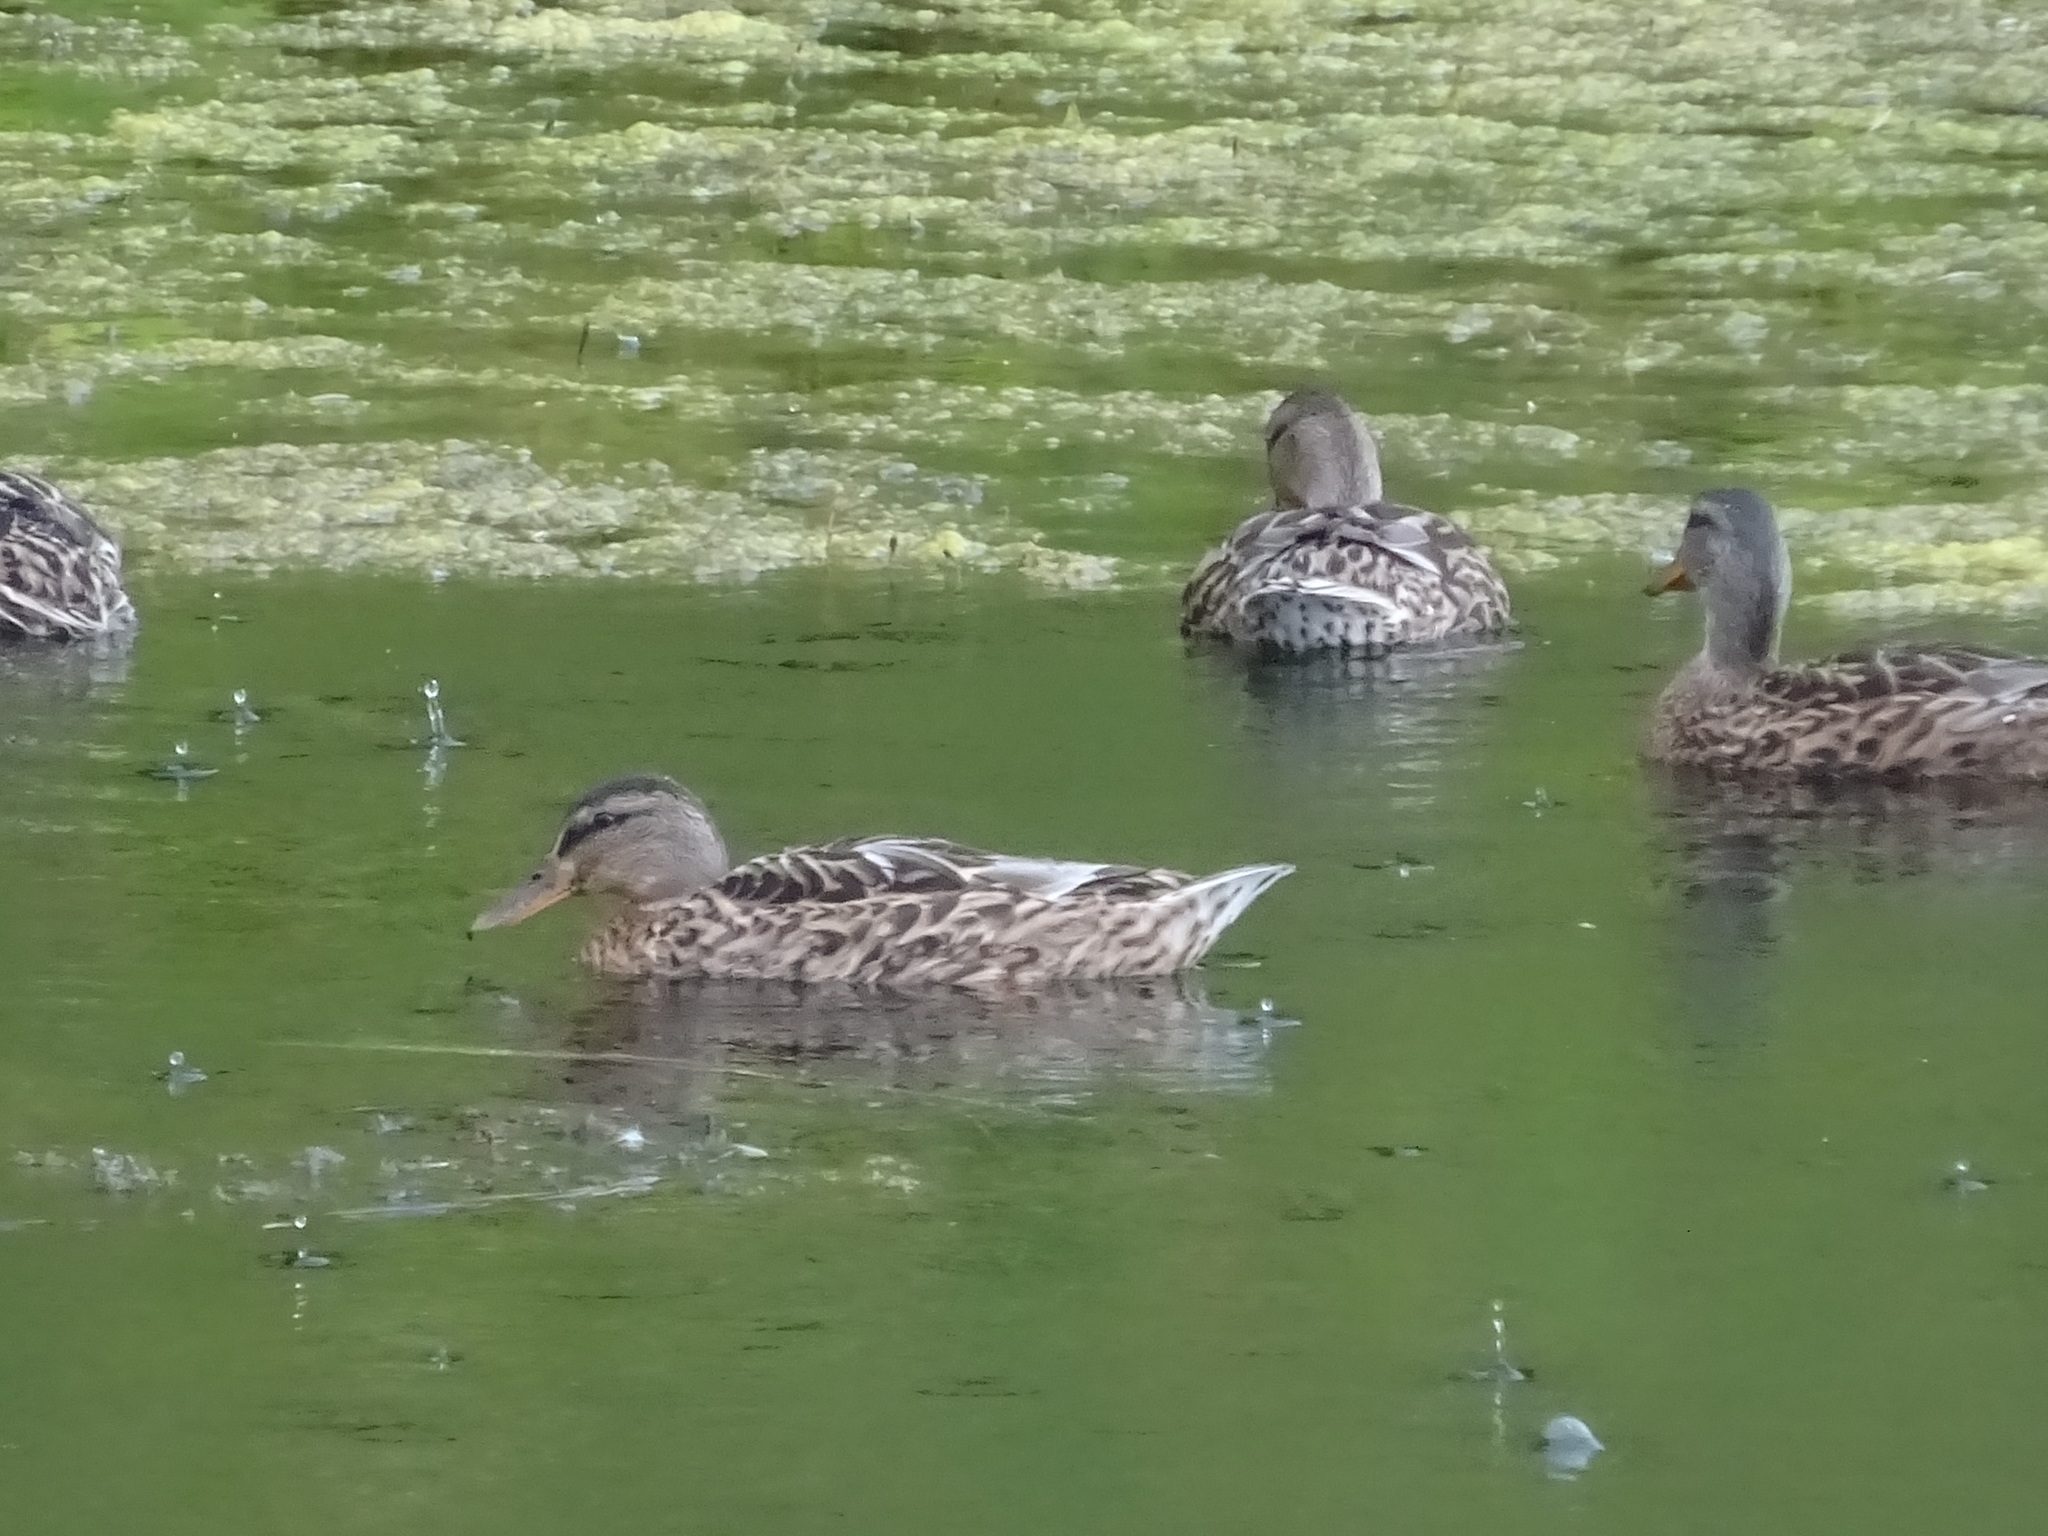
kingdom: Animalia
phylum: Chordata
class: Aves
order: Anseriformes
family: Anatidae
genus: Anas
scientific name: Anas platyrhynchos
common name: Mallard
